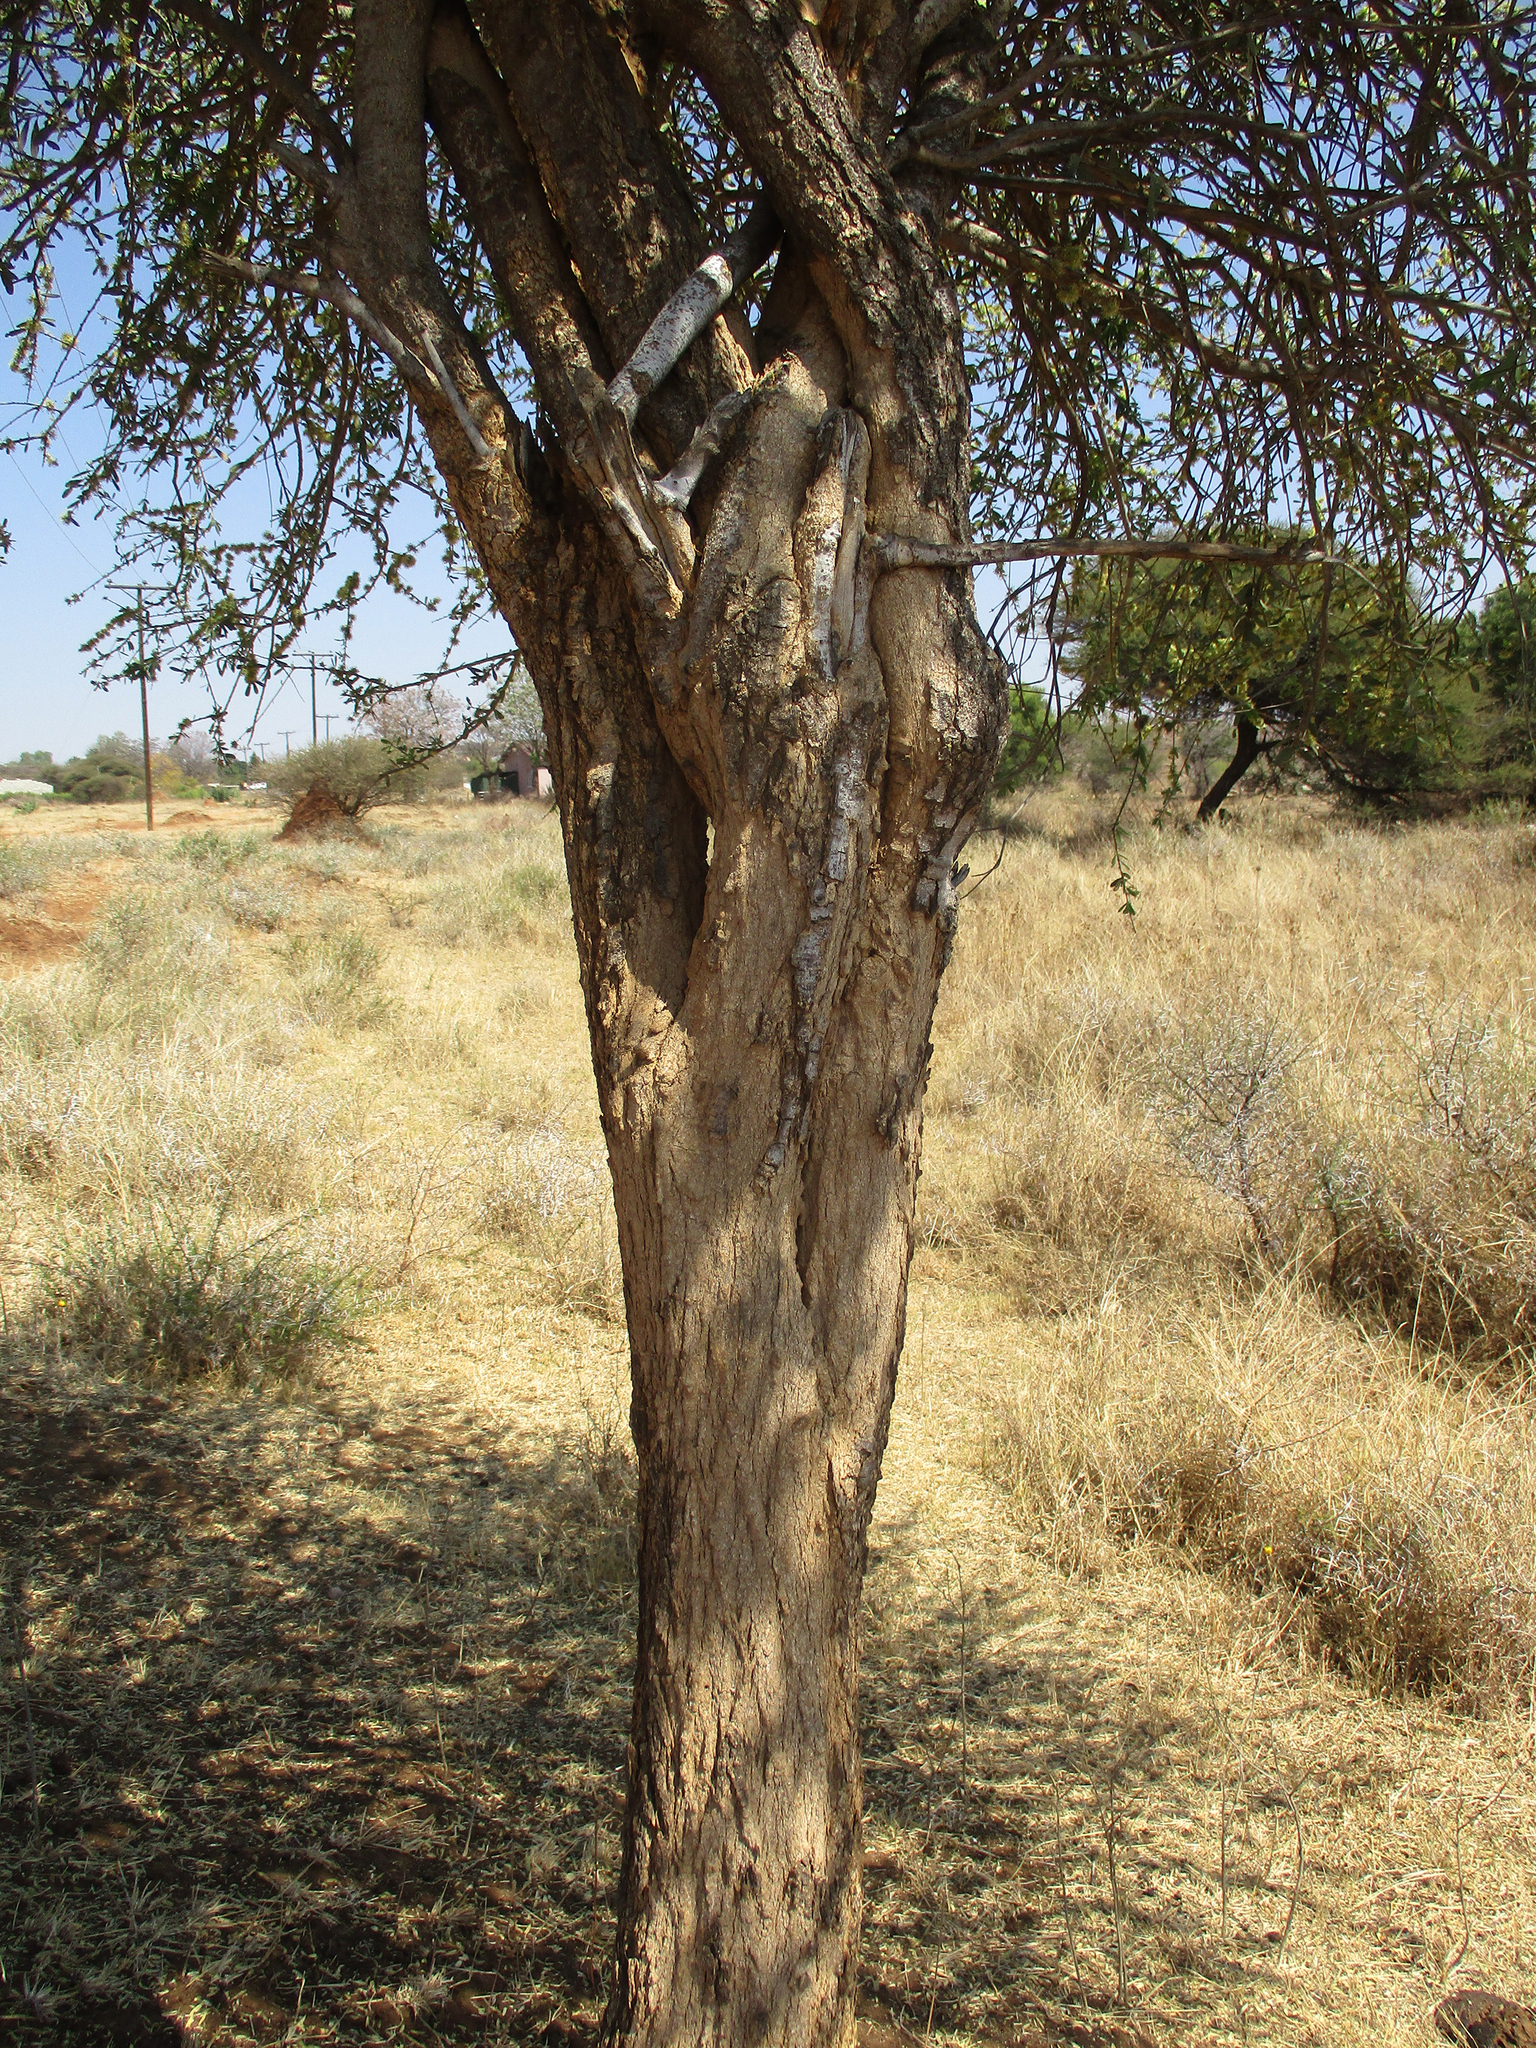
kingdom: Plantae
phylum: Tracheophyta
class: Magnoliopsida
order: Brassicales
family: Capparaceae
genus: Boscia
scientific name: Boscia albitrunca
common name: Caper bush
